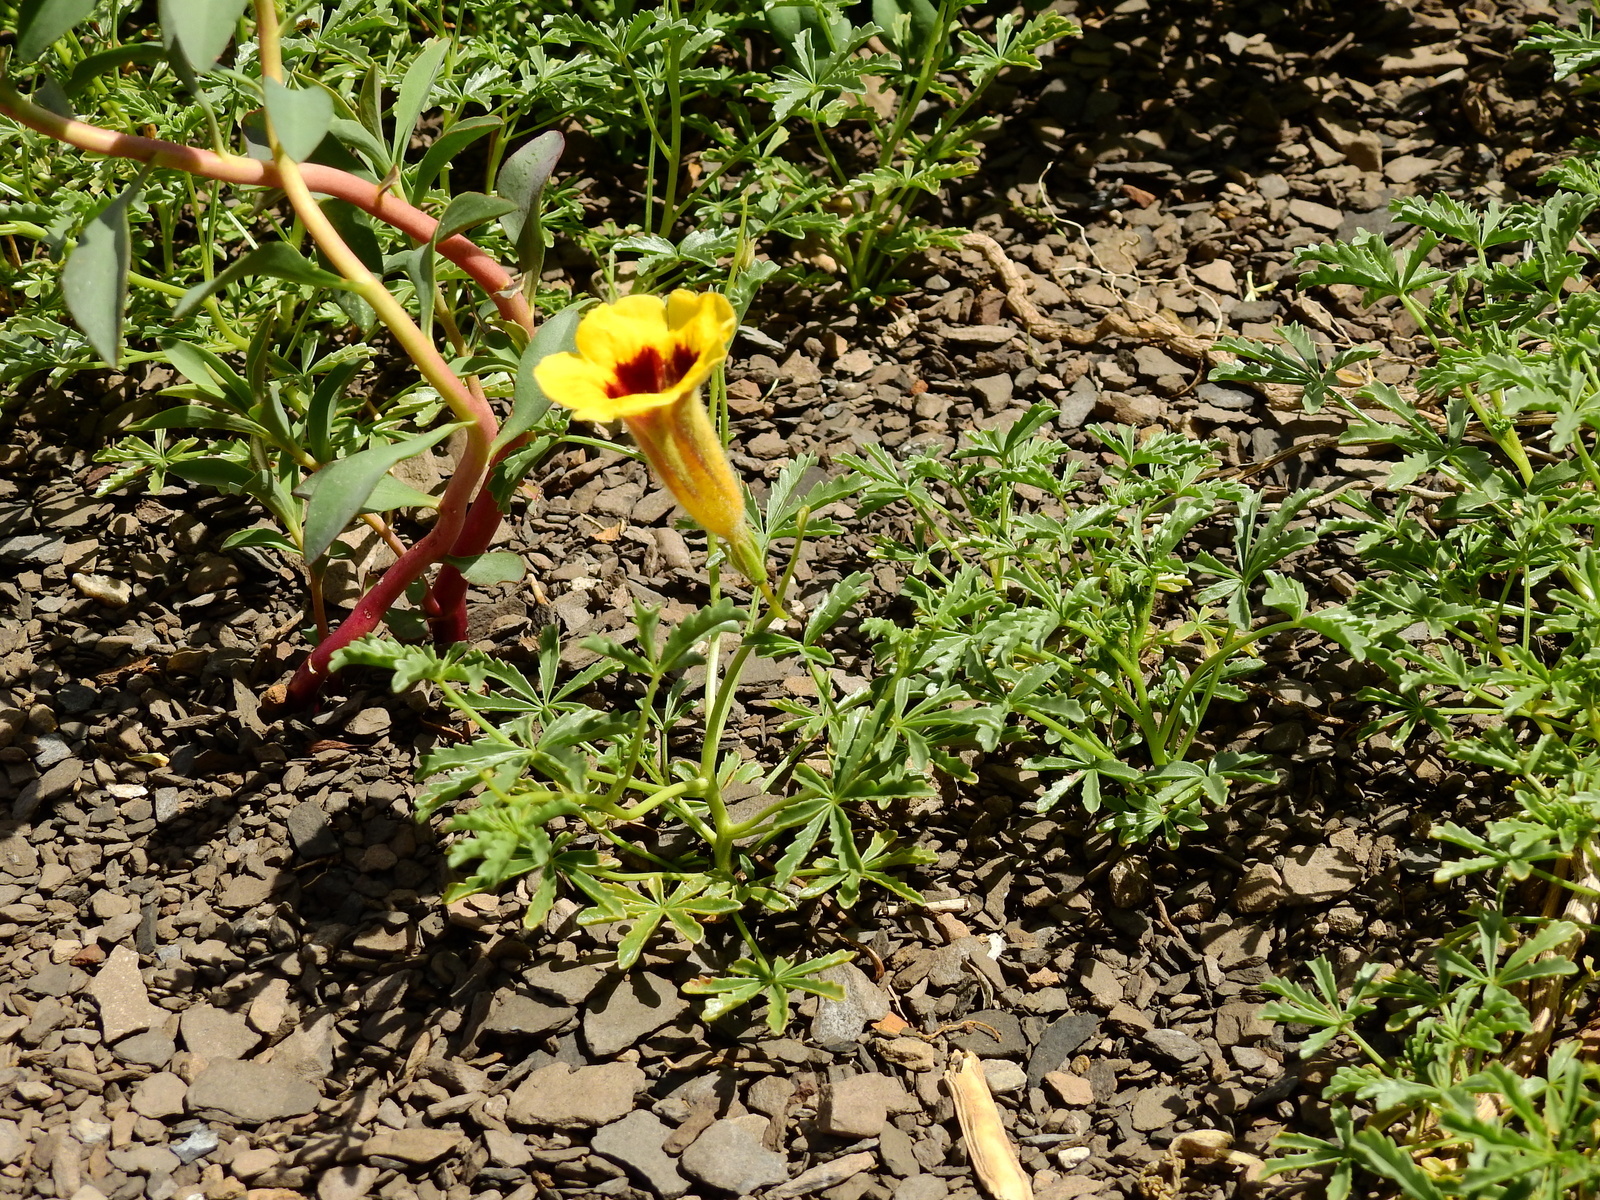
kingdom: Plantae
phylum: Tracheophyta
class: Magnoliopsida
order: Lamiales
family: Bignoniaceae
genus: Argylia
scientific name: Argylia bustillosii
